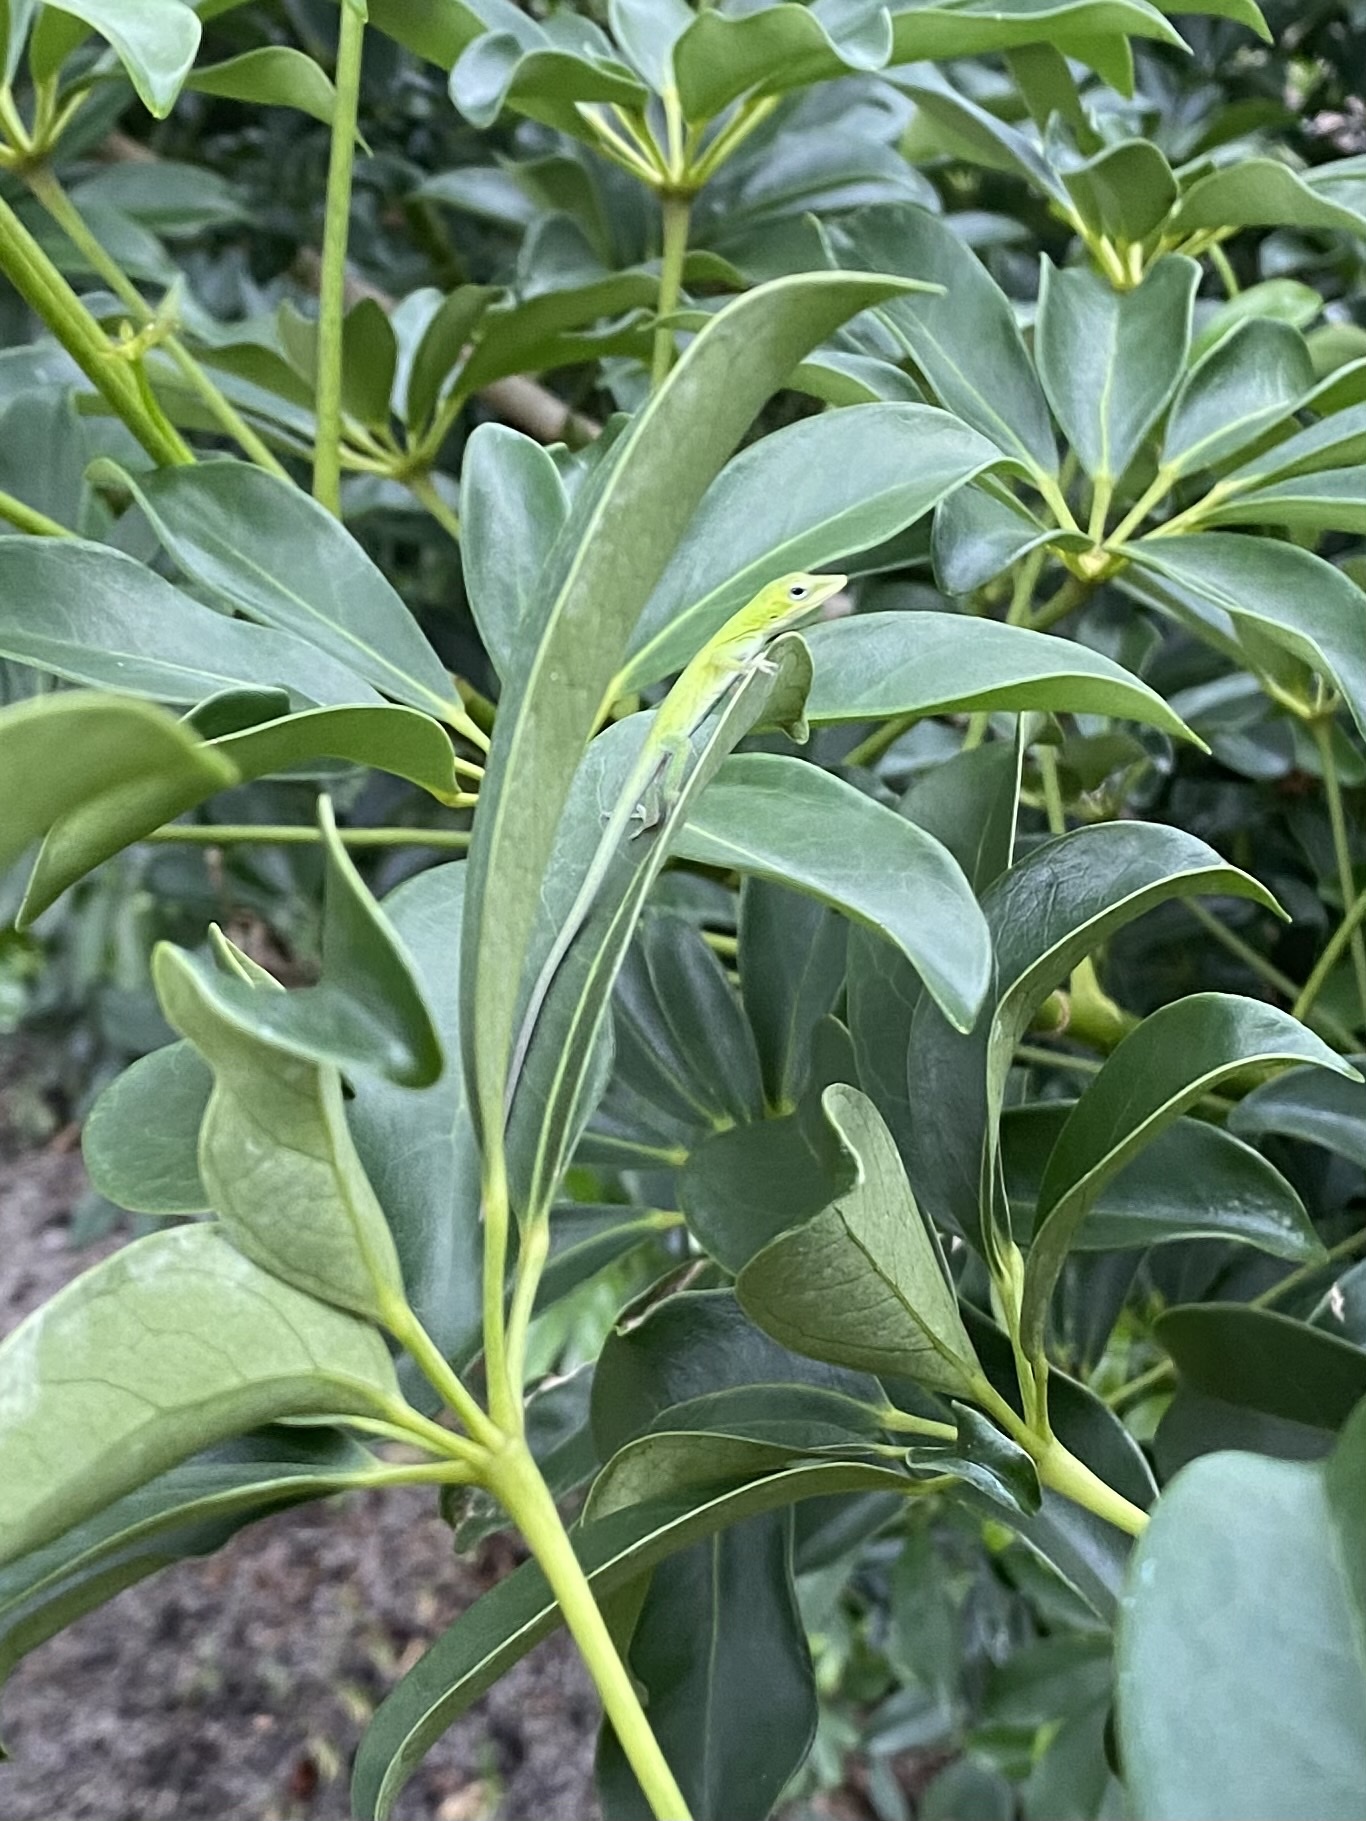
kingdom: Animalia
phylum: Chordata
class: Squamata
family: Dactyloidae
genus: Anolis
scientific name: Anolis carolinensis
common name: Green anole
